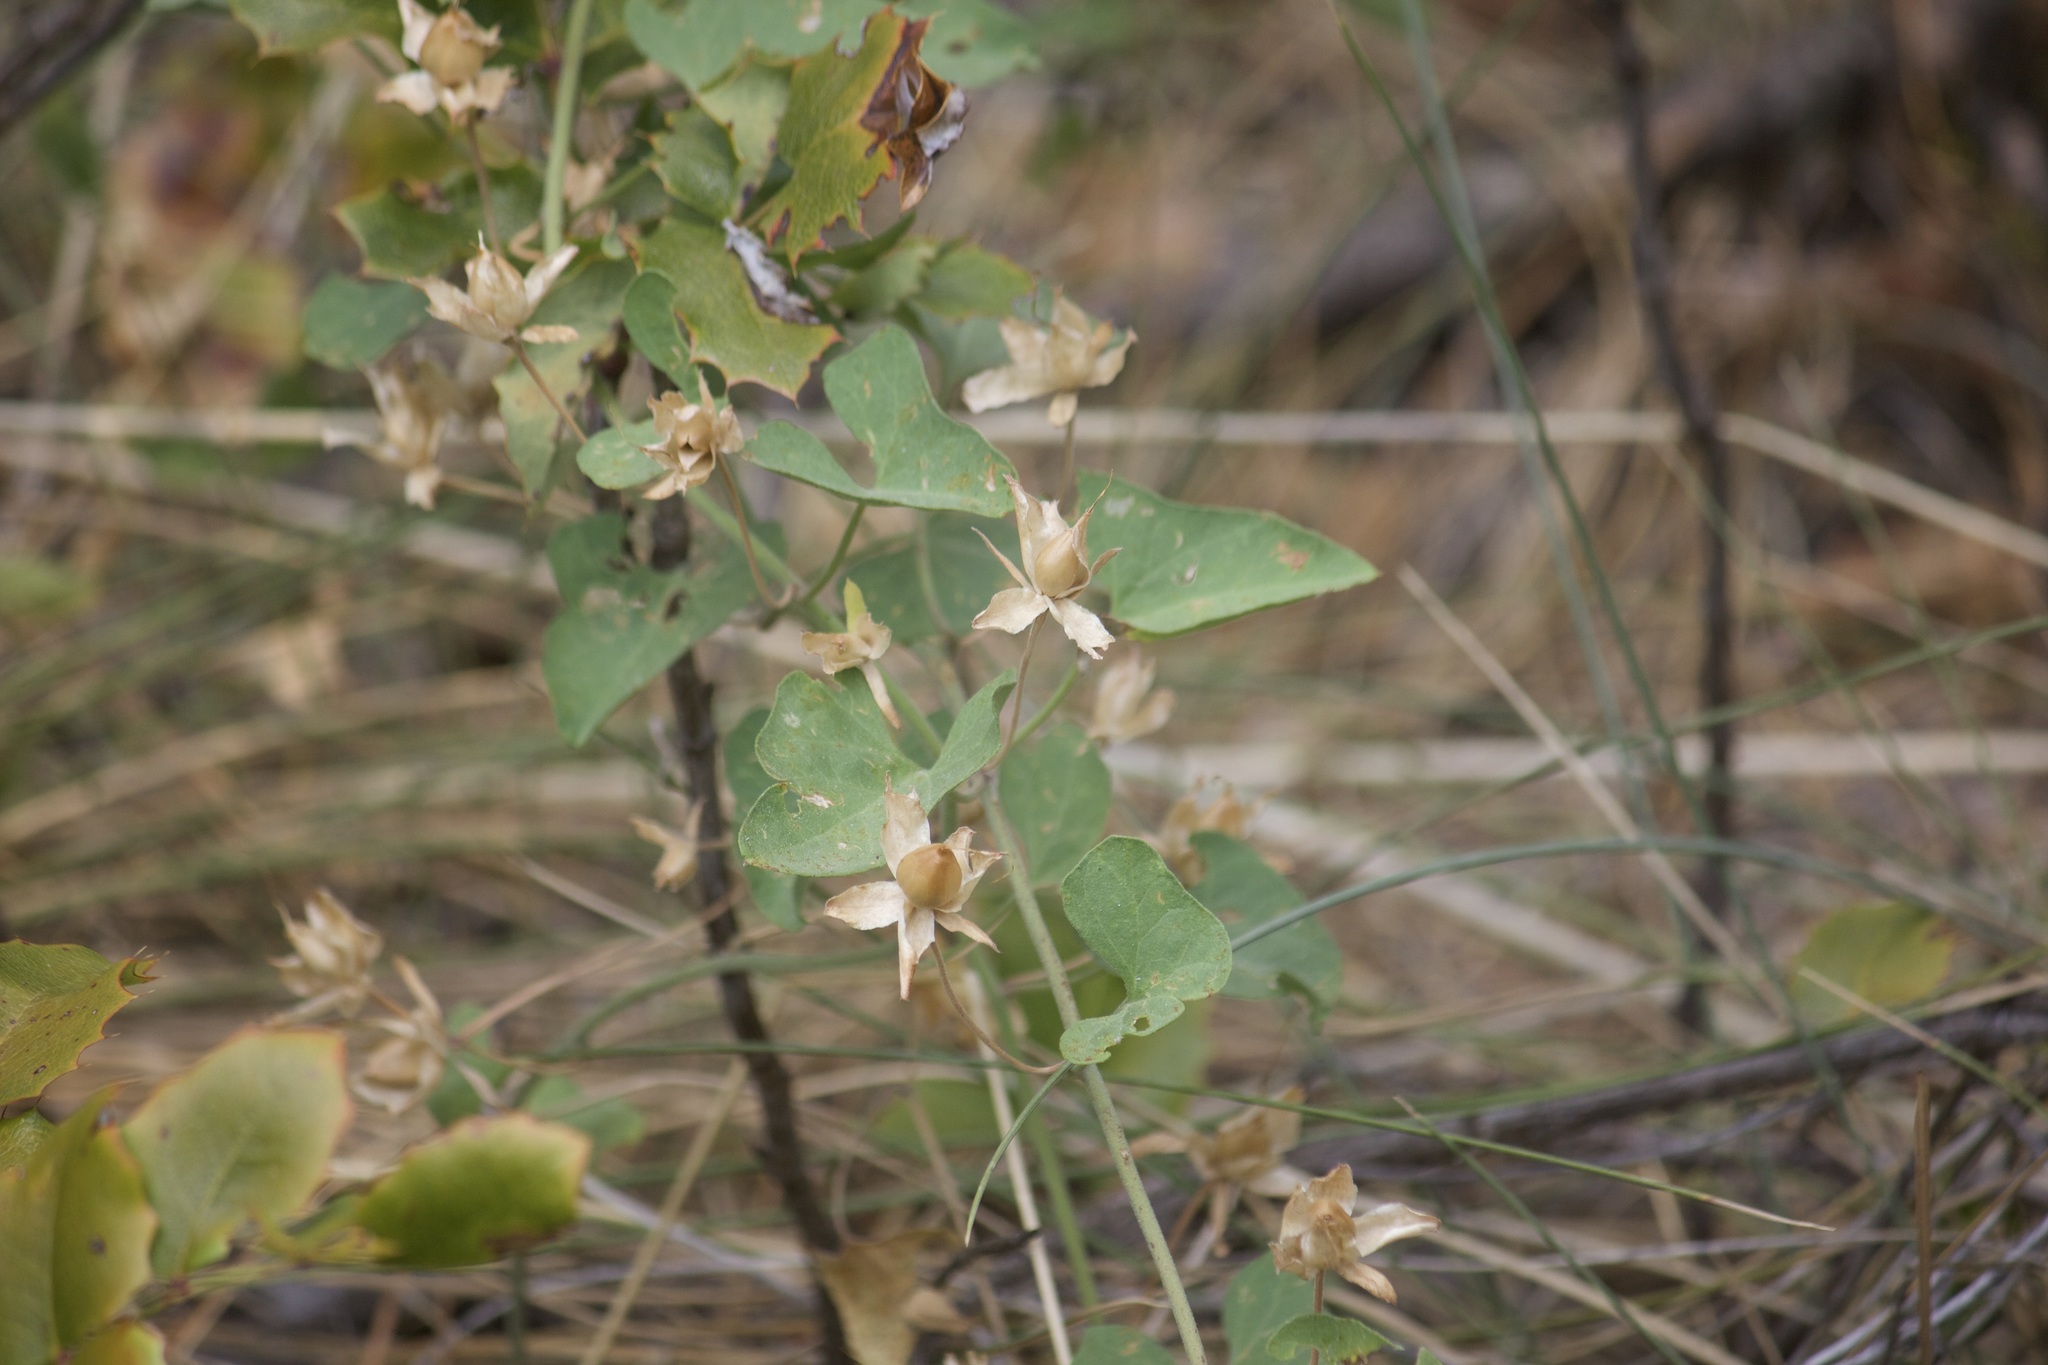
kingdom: Plantae
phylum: Tracheophyta
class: Magnoliopsida
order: Solanales
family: Convolvulaceae
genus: Calystegia
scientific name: Calystegia occidentalis
